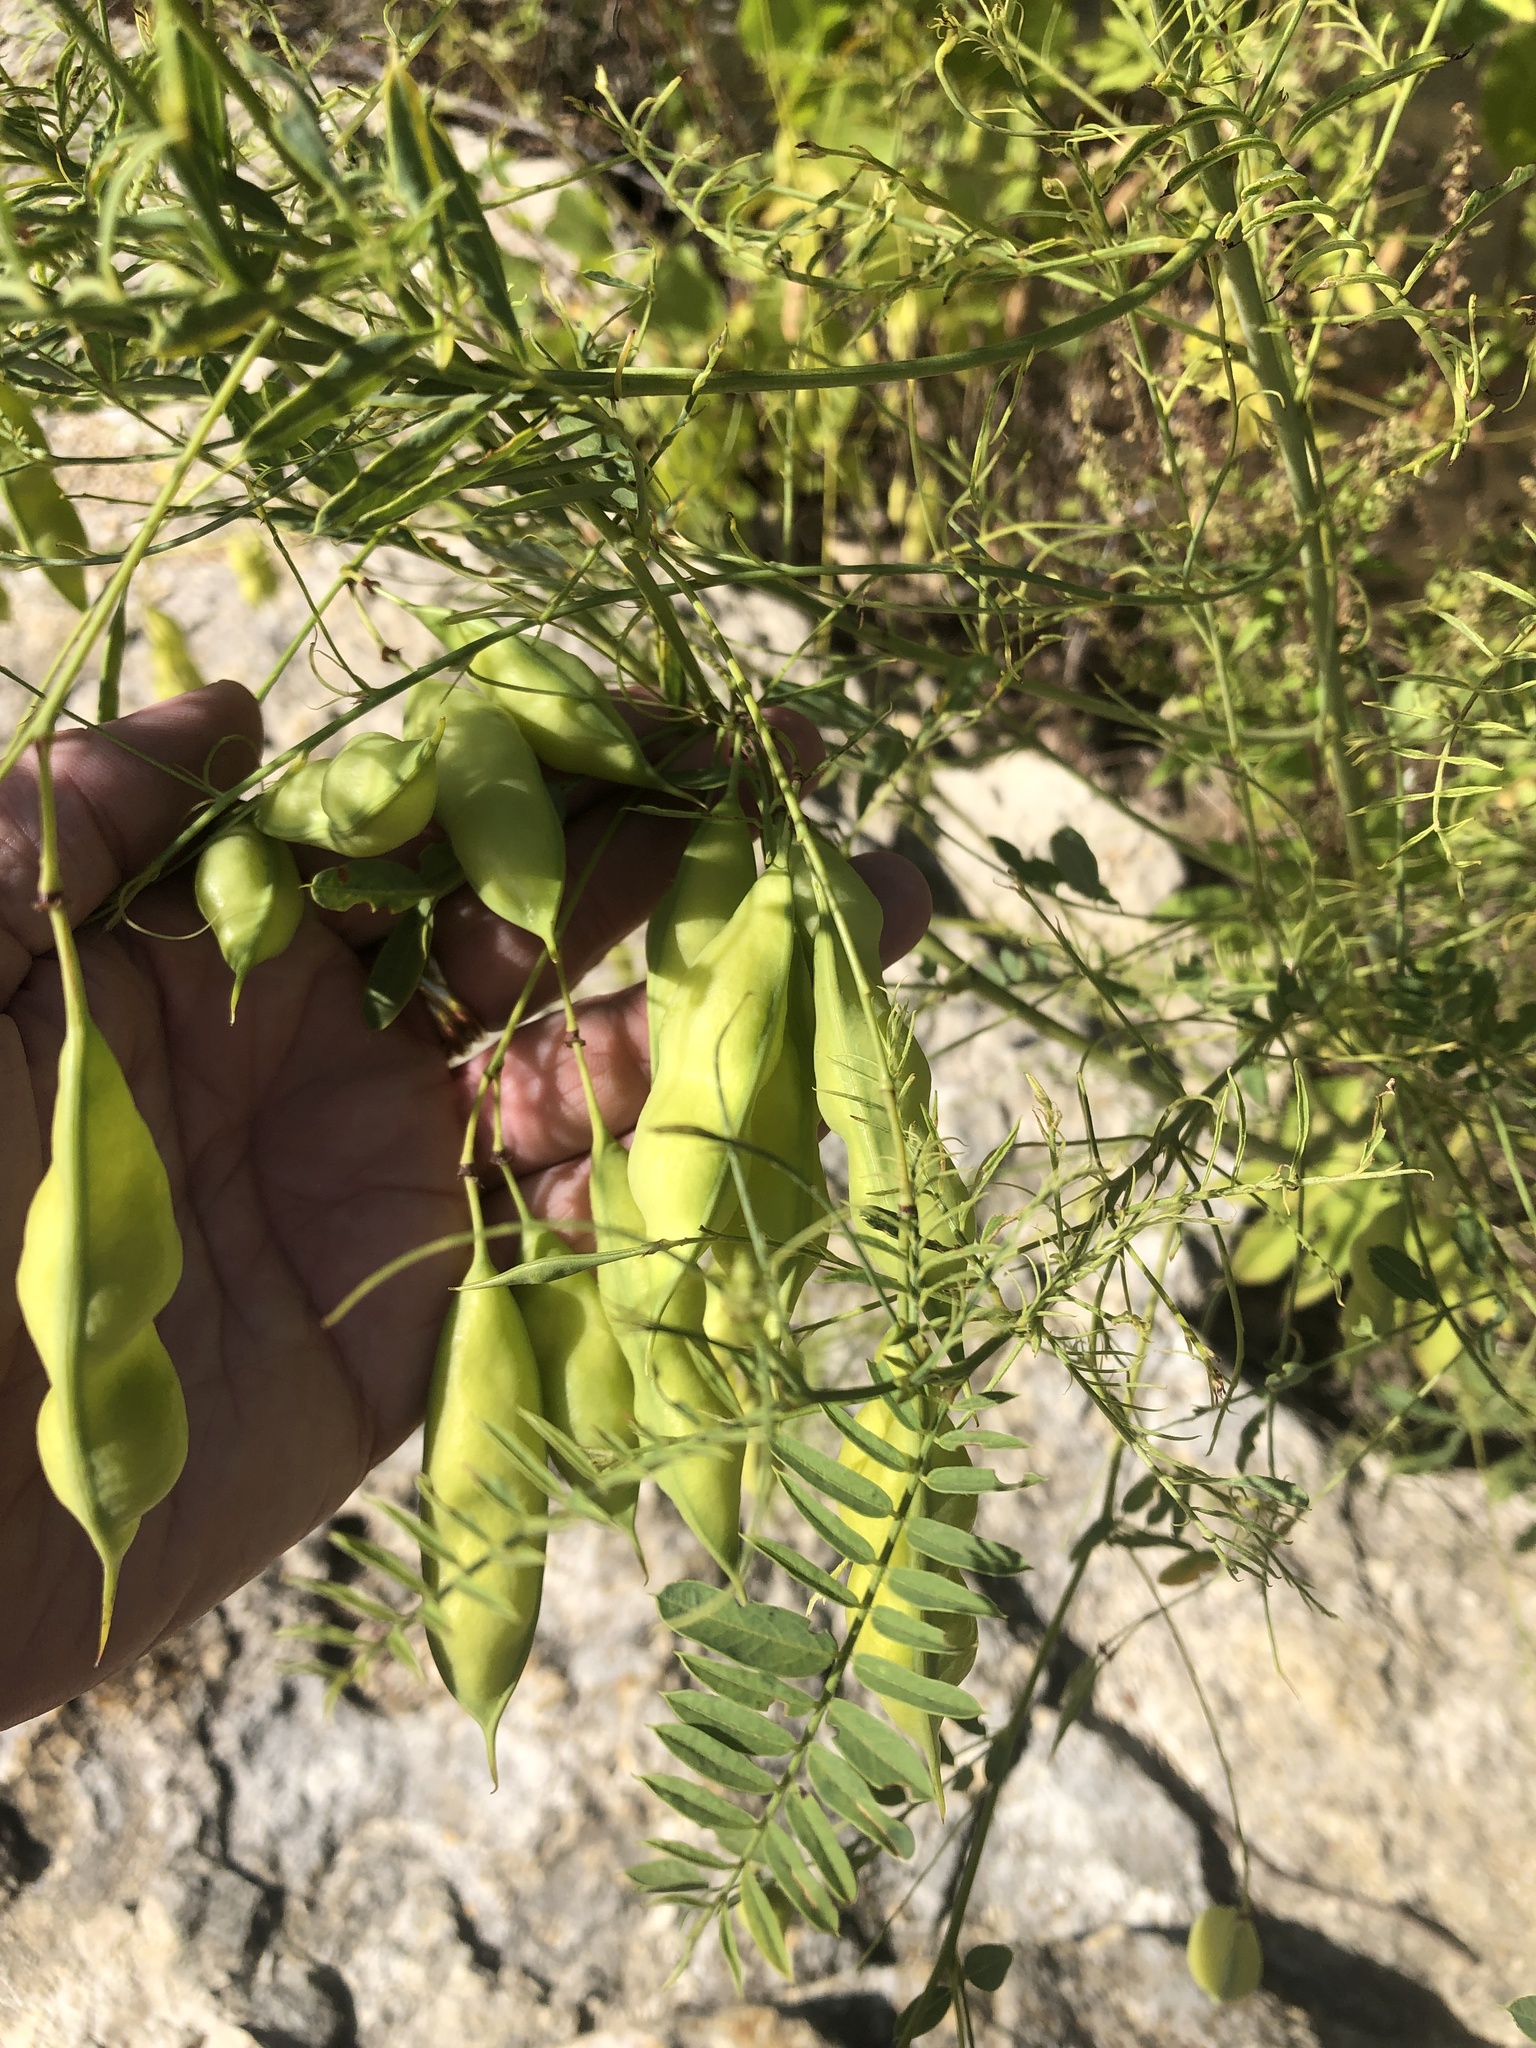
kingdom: Plantae
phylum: Tracheophyta
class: Magnoliopsida
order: Fabales
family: Fabaceae
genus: Sesbania
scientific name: Sesbania vesicaria
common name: Bagpod
